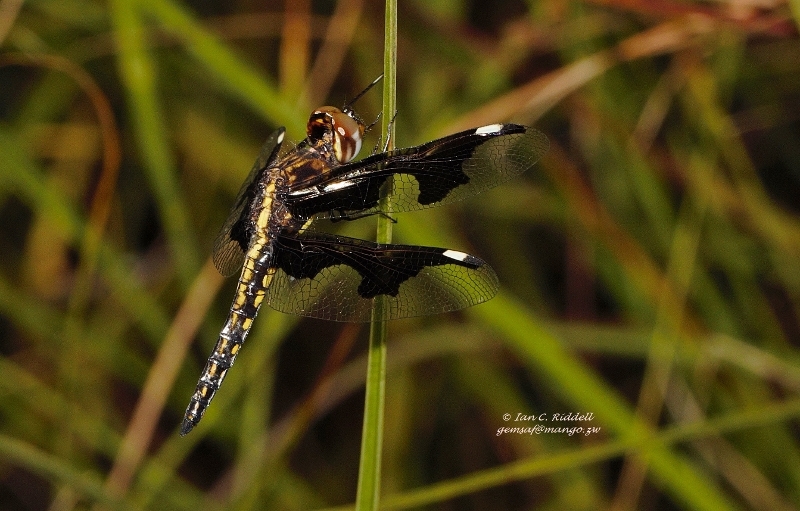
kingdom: Animalia
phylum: Arthropoda
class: Insecta
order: Odonata
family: Libellulidae
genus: Palpopleura
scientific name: Palpopleura portia
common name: Portia widow
